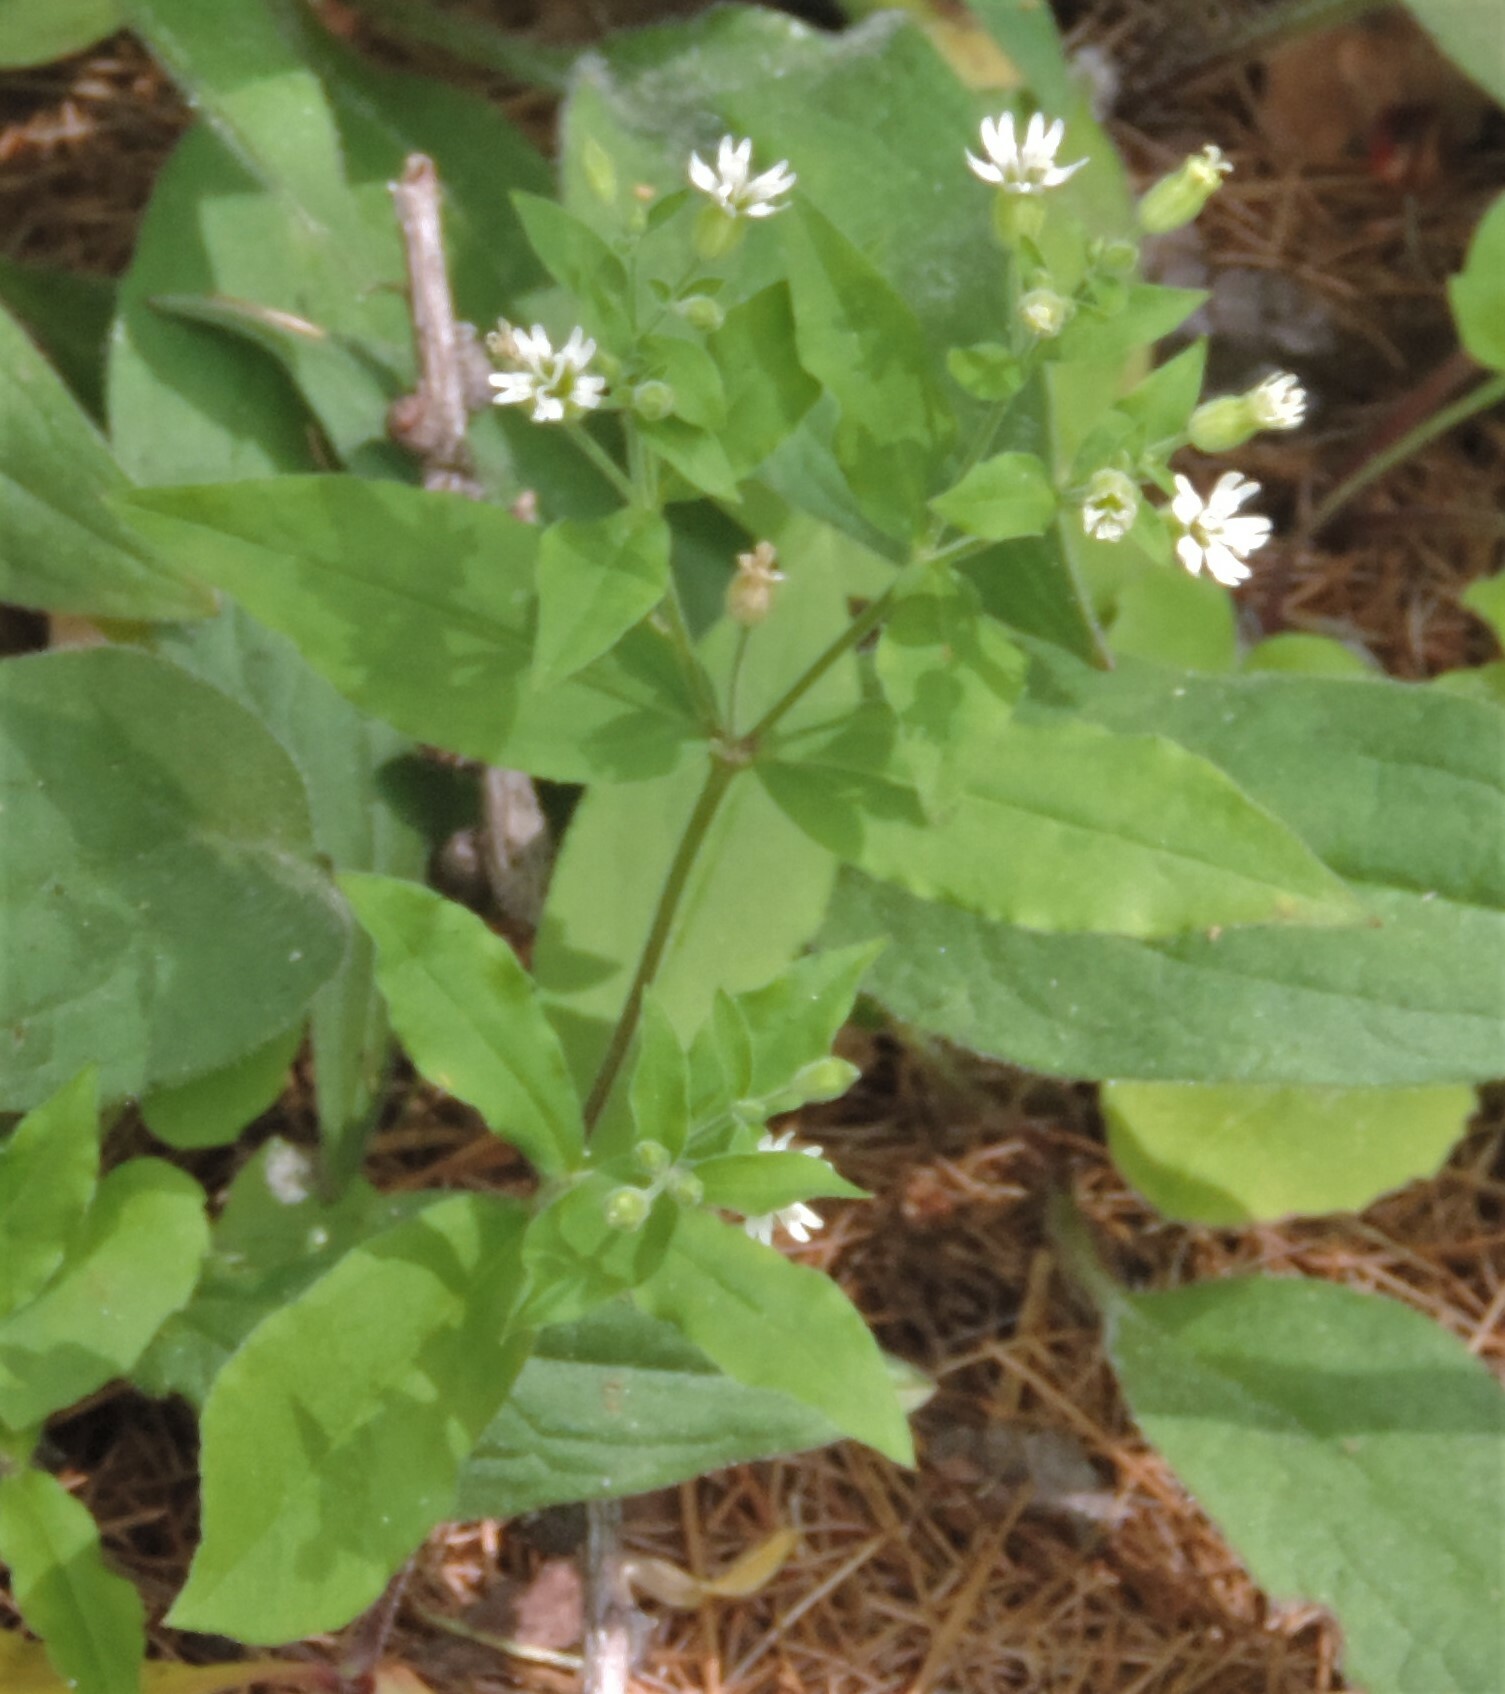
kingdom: Plantae
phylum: Tracheophyta
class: Magnoliopsida
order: Caryophyllales
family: Caryophyllaceae
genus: Silene
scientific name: Silene menziesii
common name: Menzies's catchfly
